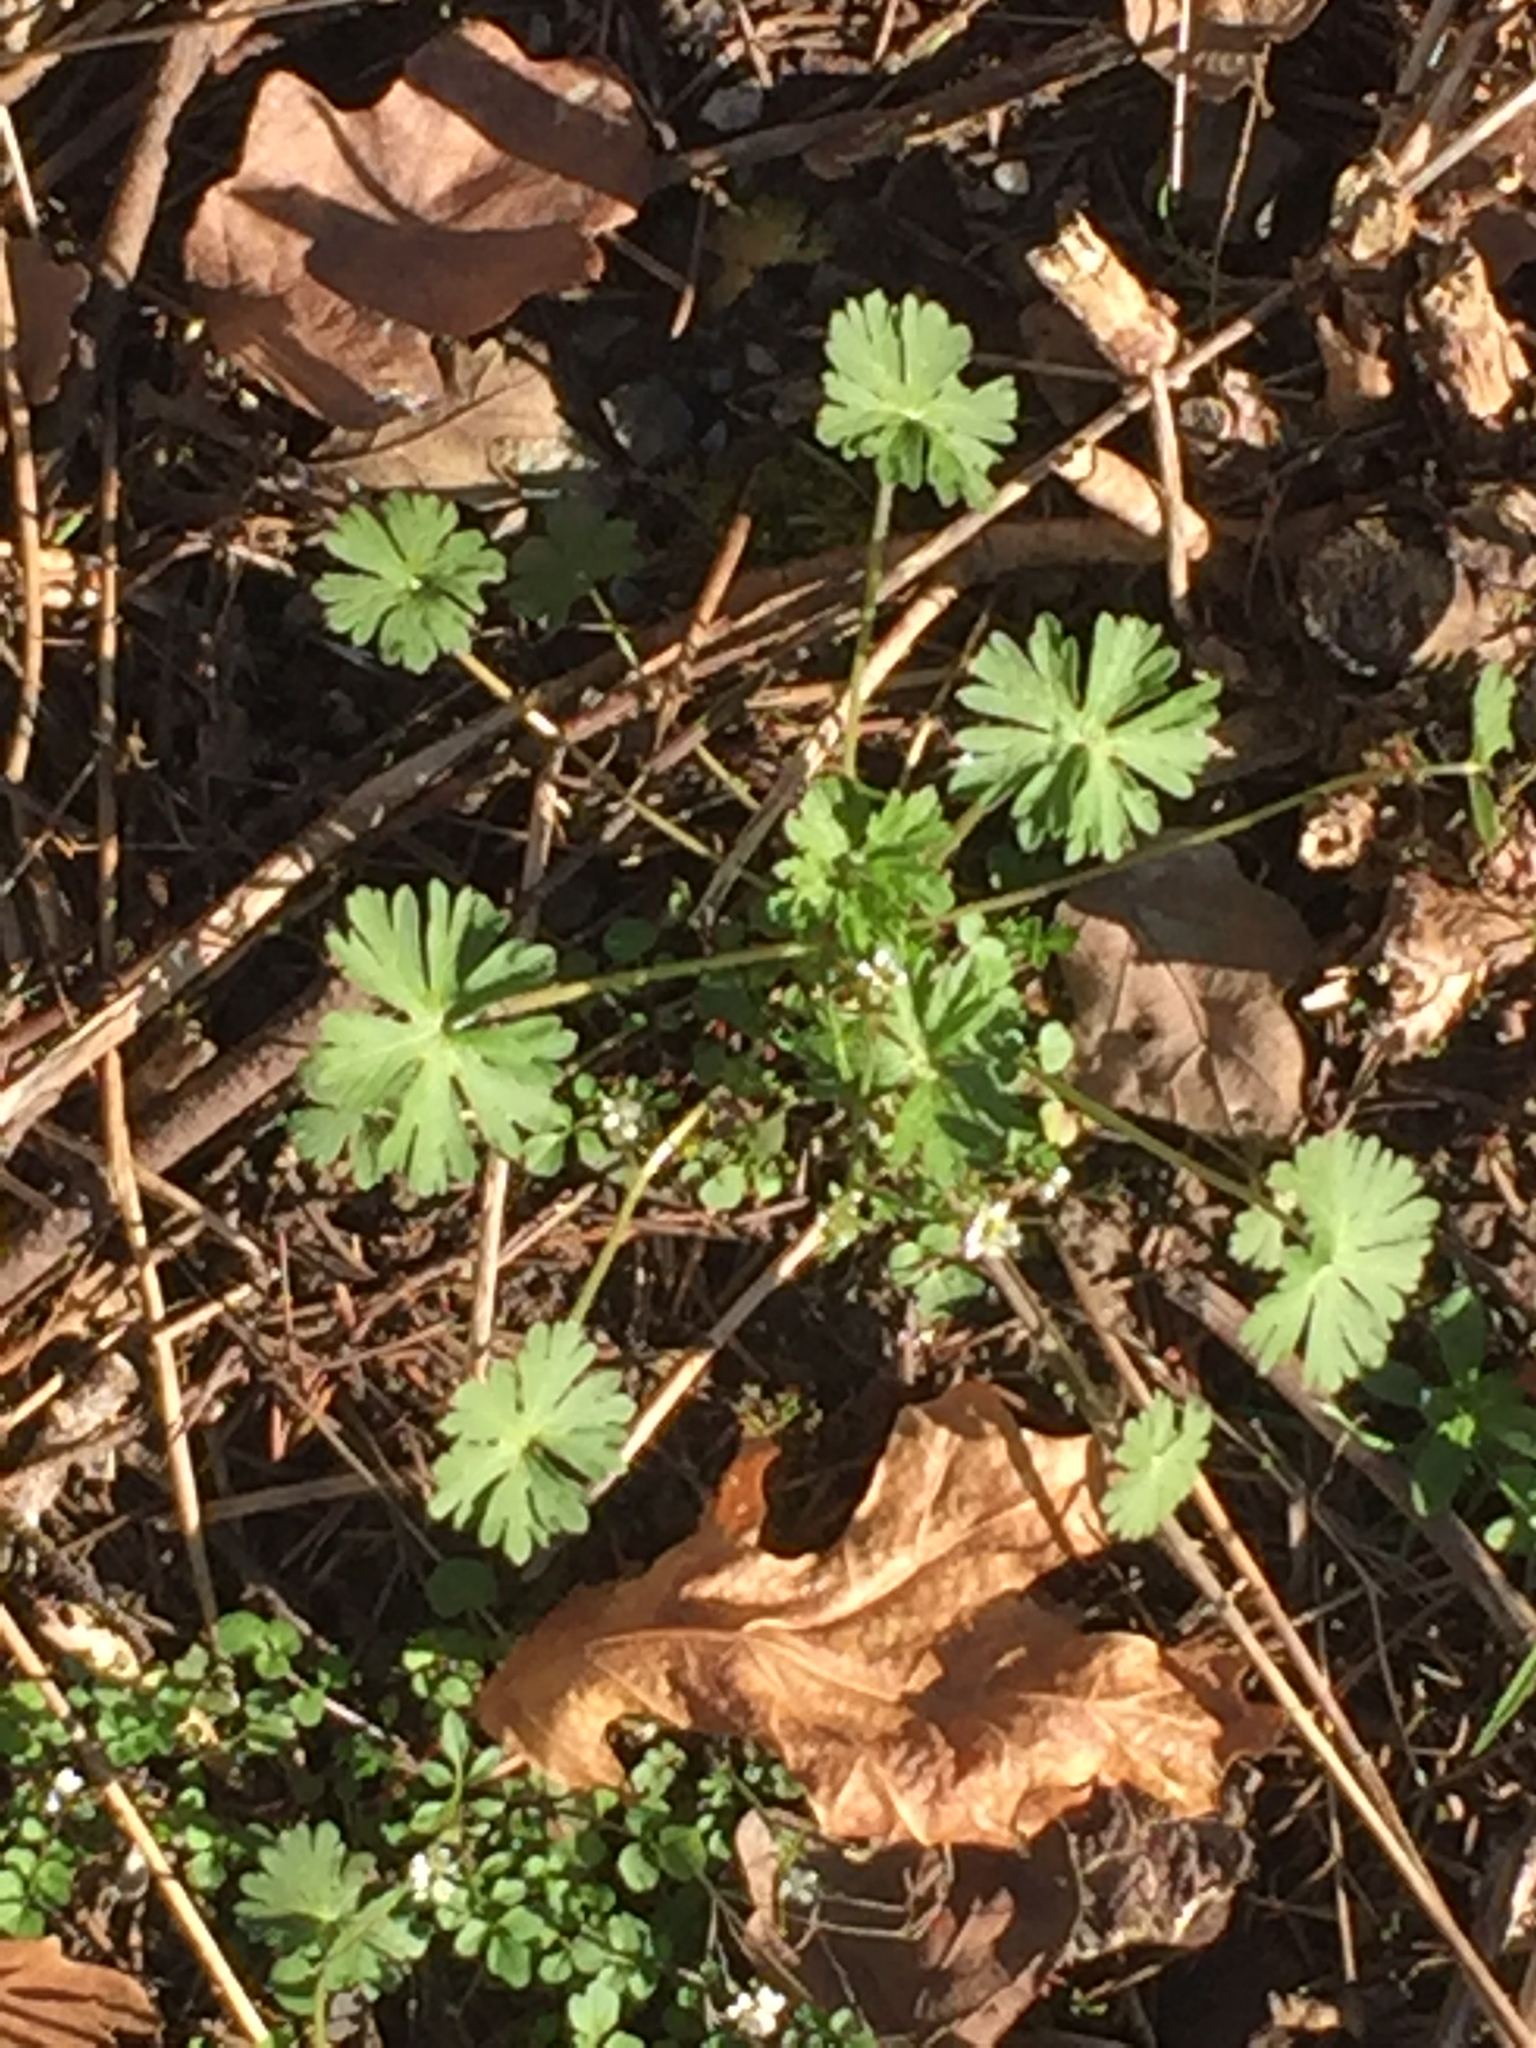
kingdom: Plantae
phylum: Tracheophyta
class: Magnoliopsida
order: Geraniales
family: Geraniaceae
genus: Geranium
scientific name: Geranium molle
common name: Dove's-foot crane's-bill
